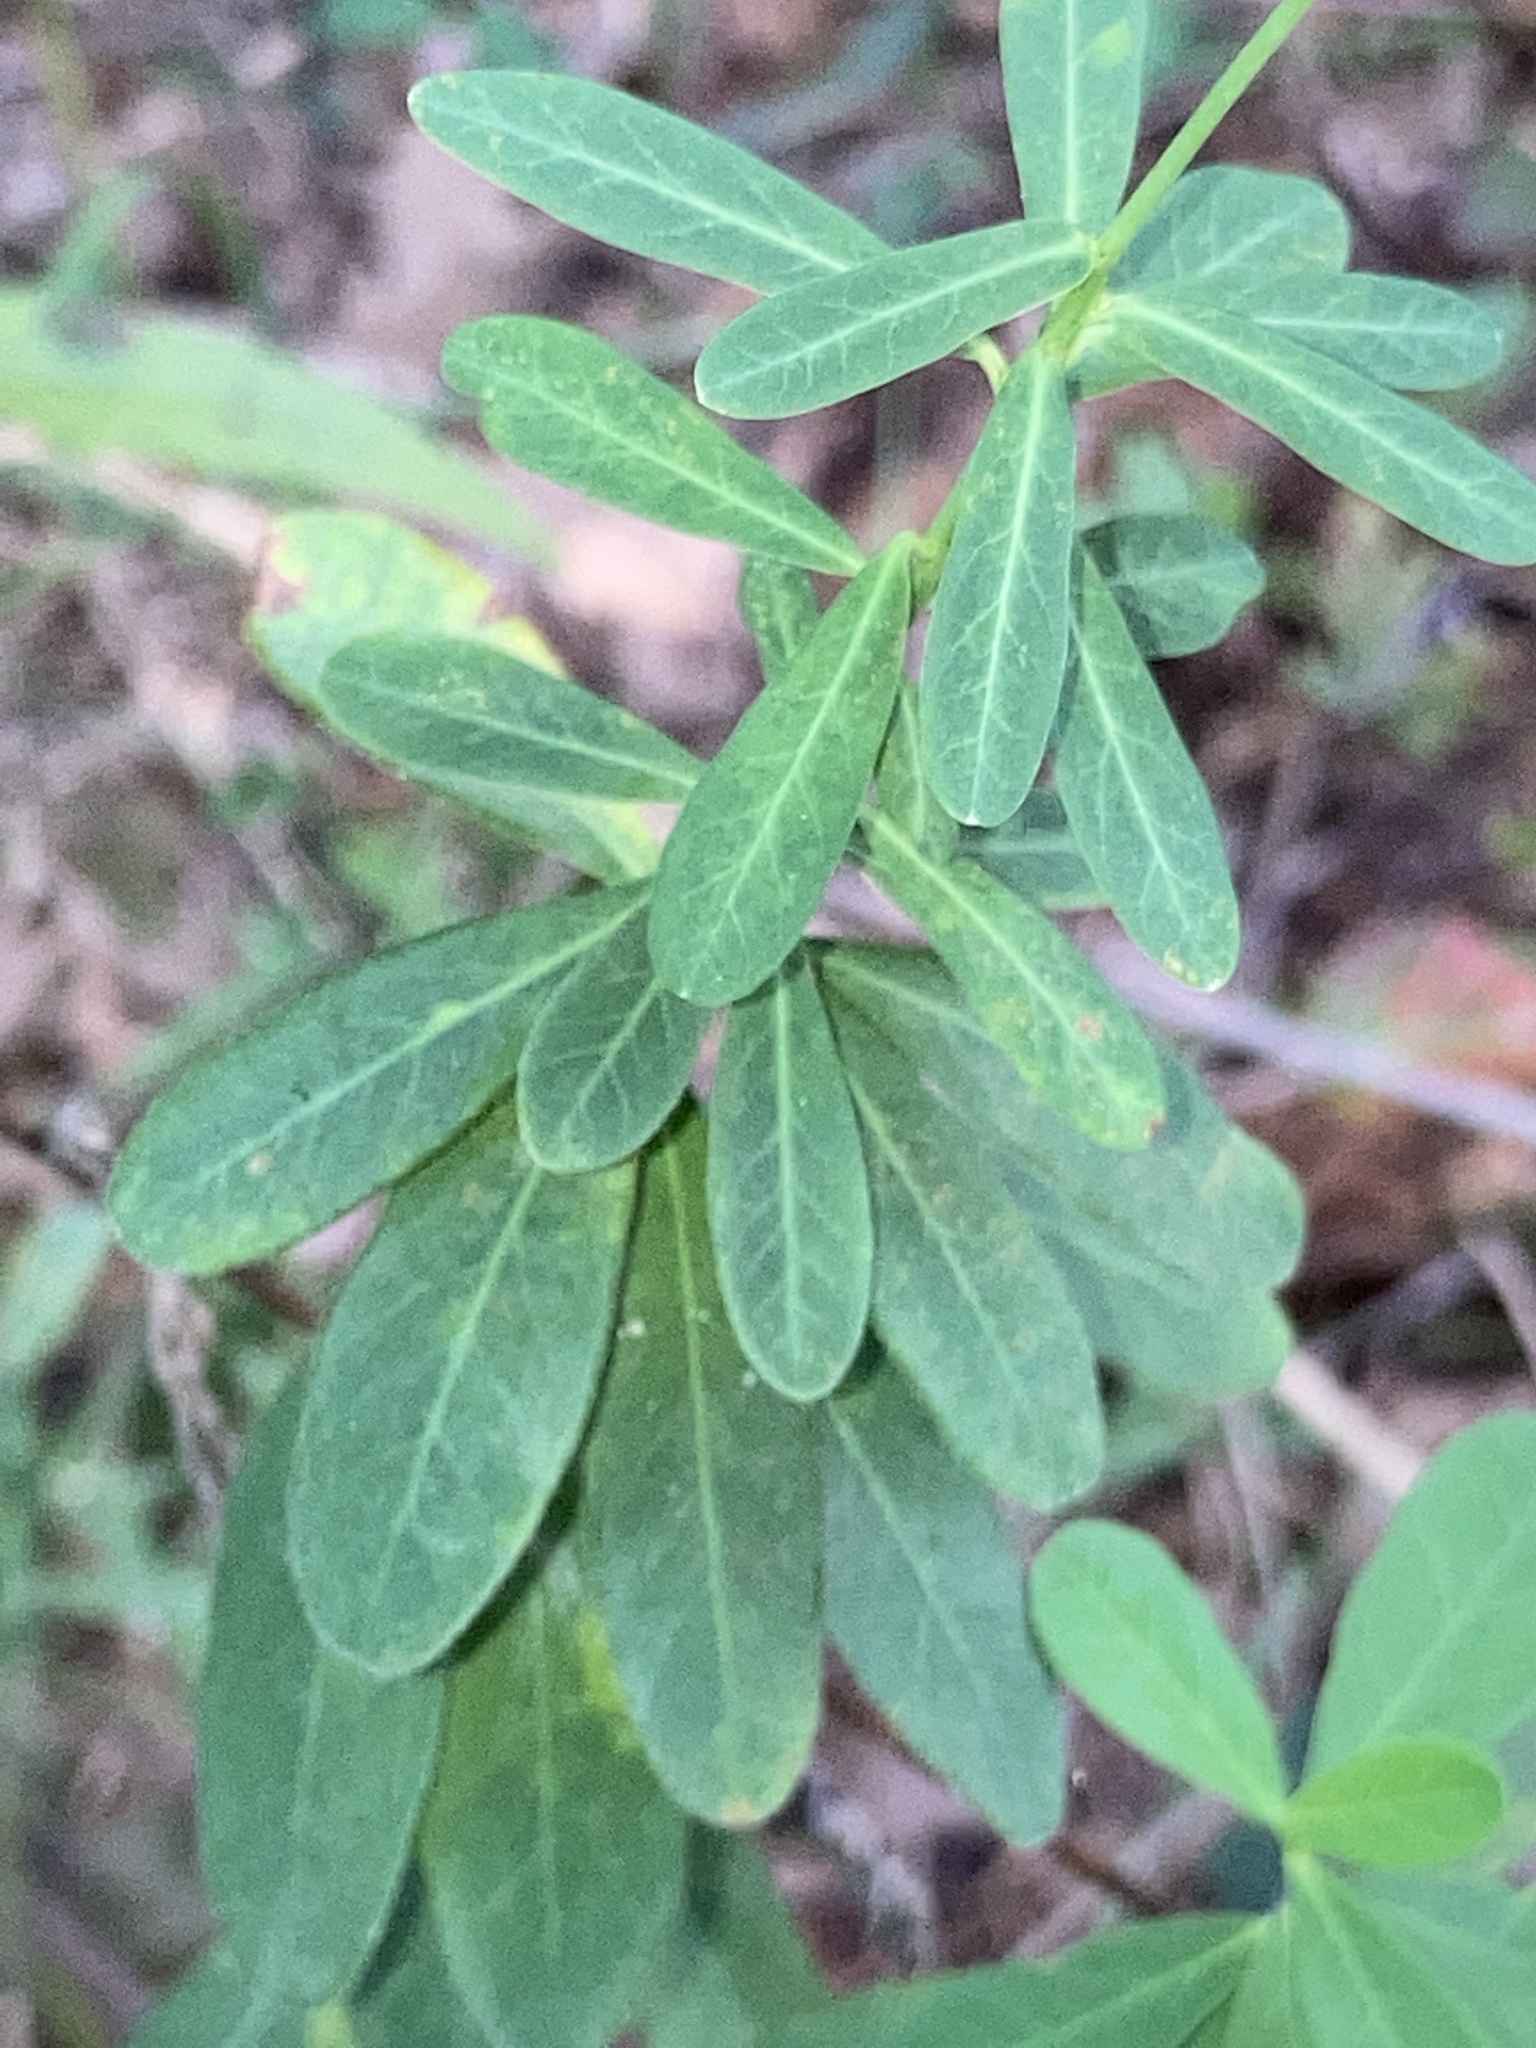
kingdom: Plantae
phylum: Tracheophyta
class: Magnoliopsida
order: Malpighiales
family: Euphorbiaceae
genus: Euphorbia
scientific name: Euphorbia corollata
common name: Flowering spurge
